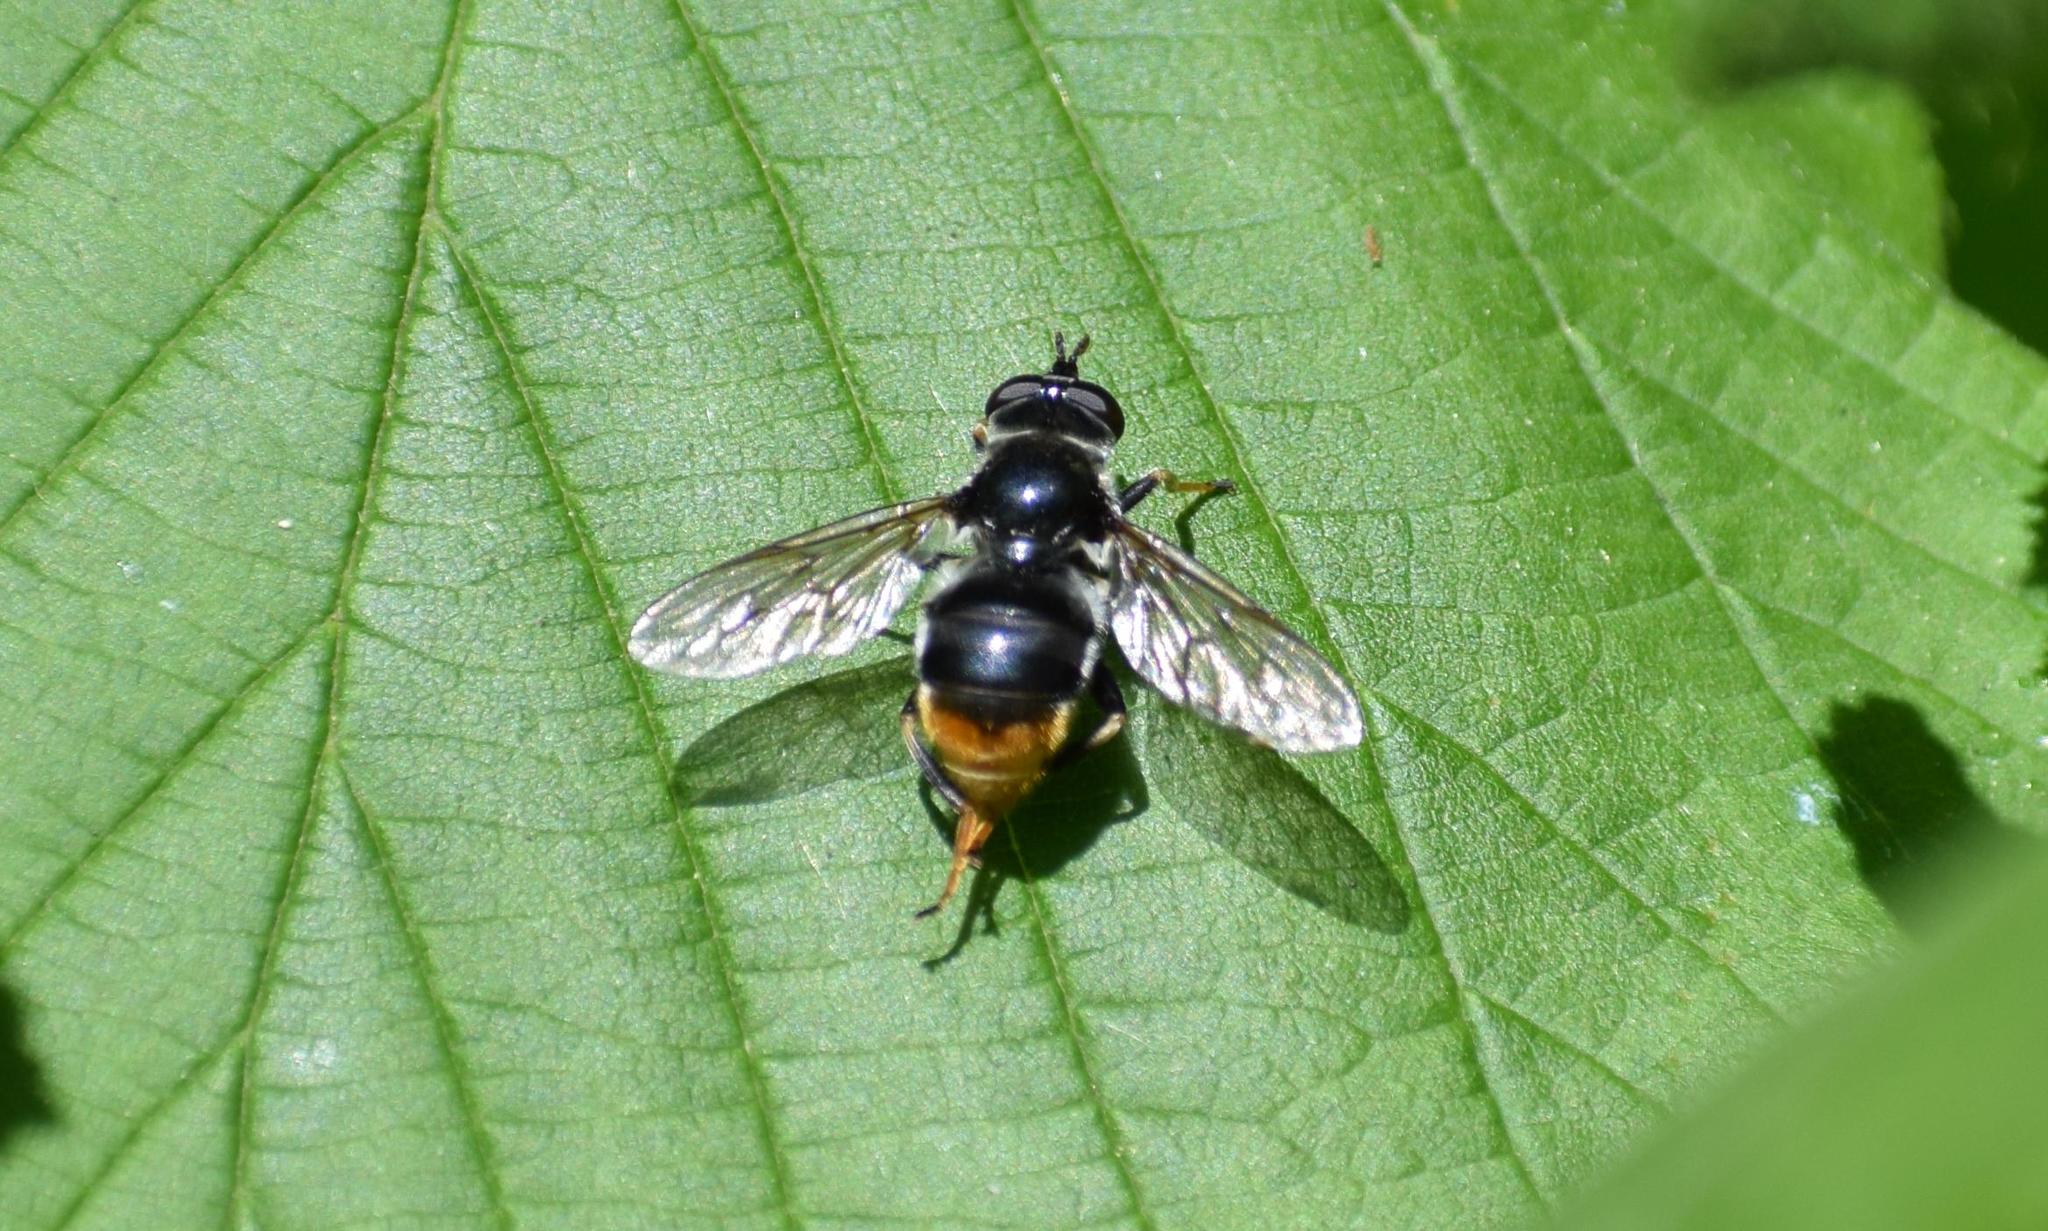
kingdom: Animalia
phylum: Arthropoda
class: Insecta
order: Diptera
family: Syrphidae
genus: Blera
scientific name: Blera fallax
